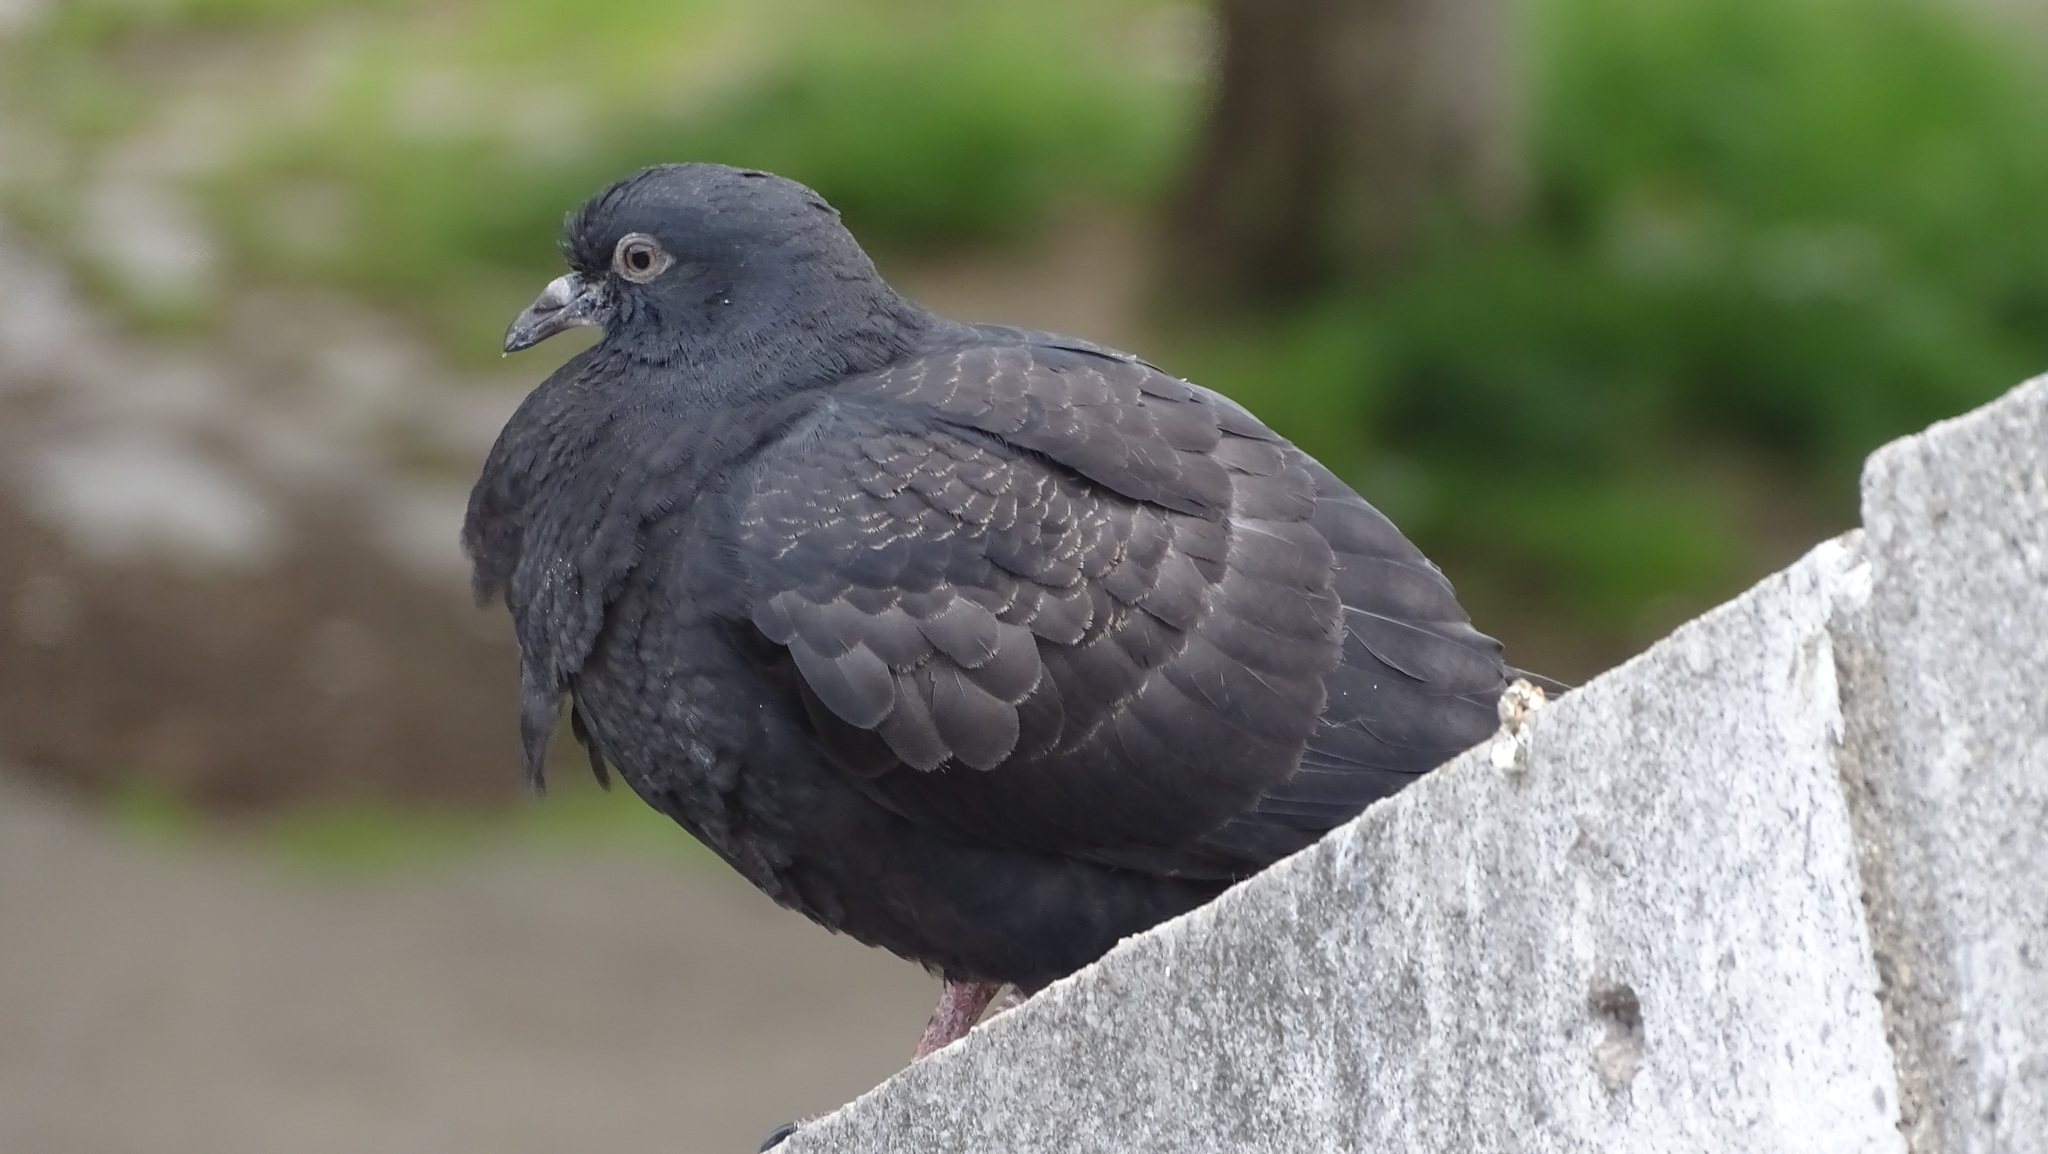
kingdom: Animalia
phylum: Chordata
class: Aves
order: Columbiformes
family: Columbidae
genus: Columba
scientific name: Columba livia
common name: Rock pigeon
